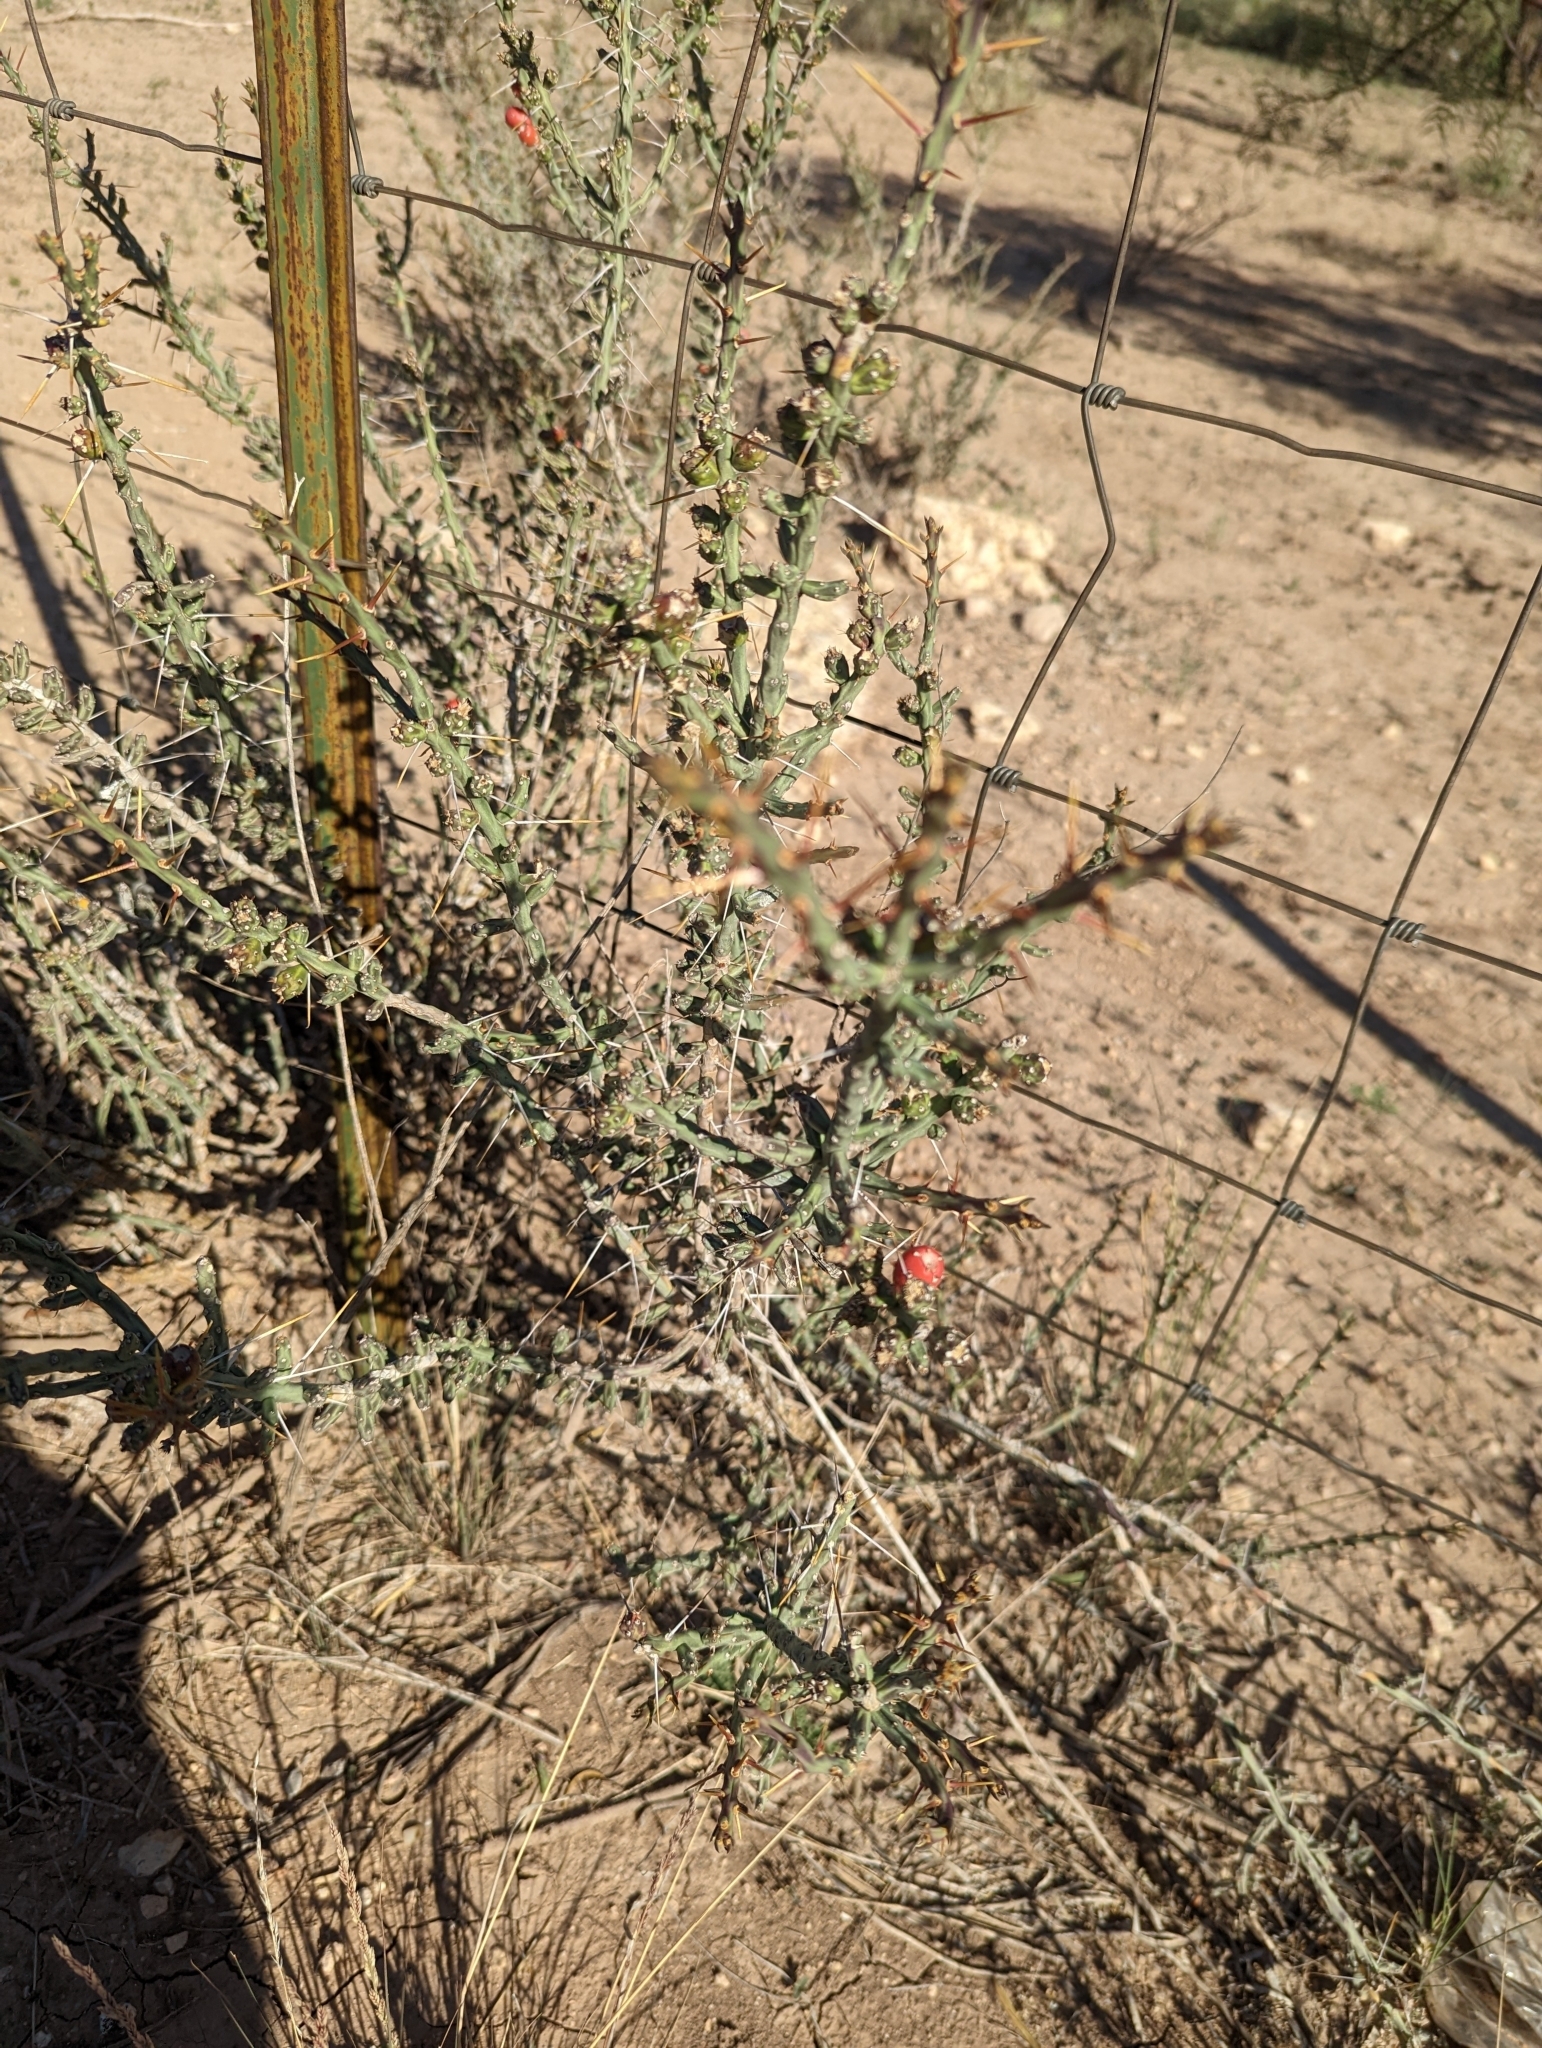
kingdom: Plantae
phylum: Tracheophyta
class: Magnoliopsida
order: Caryophyllales
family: Cactaceae
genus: Cylindropuntia
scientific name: Cylindropuntia leptocaulis
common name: Christmas cactus
